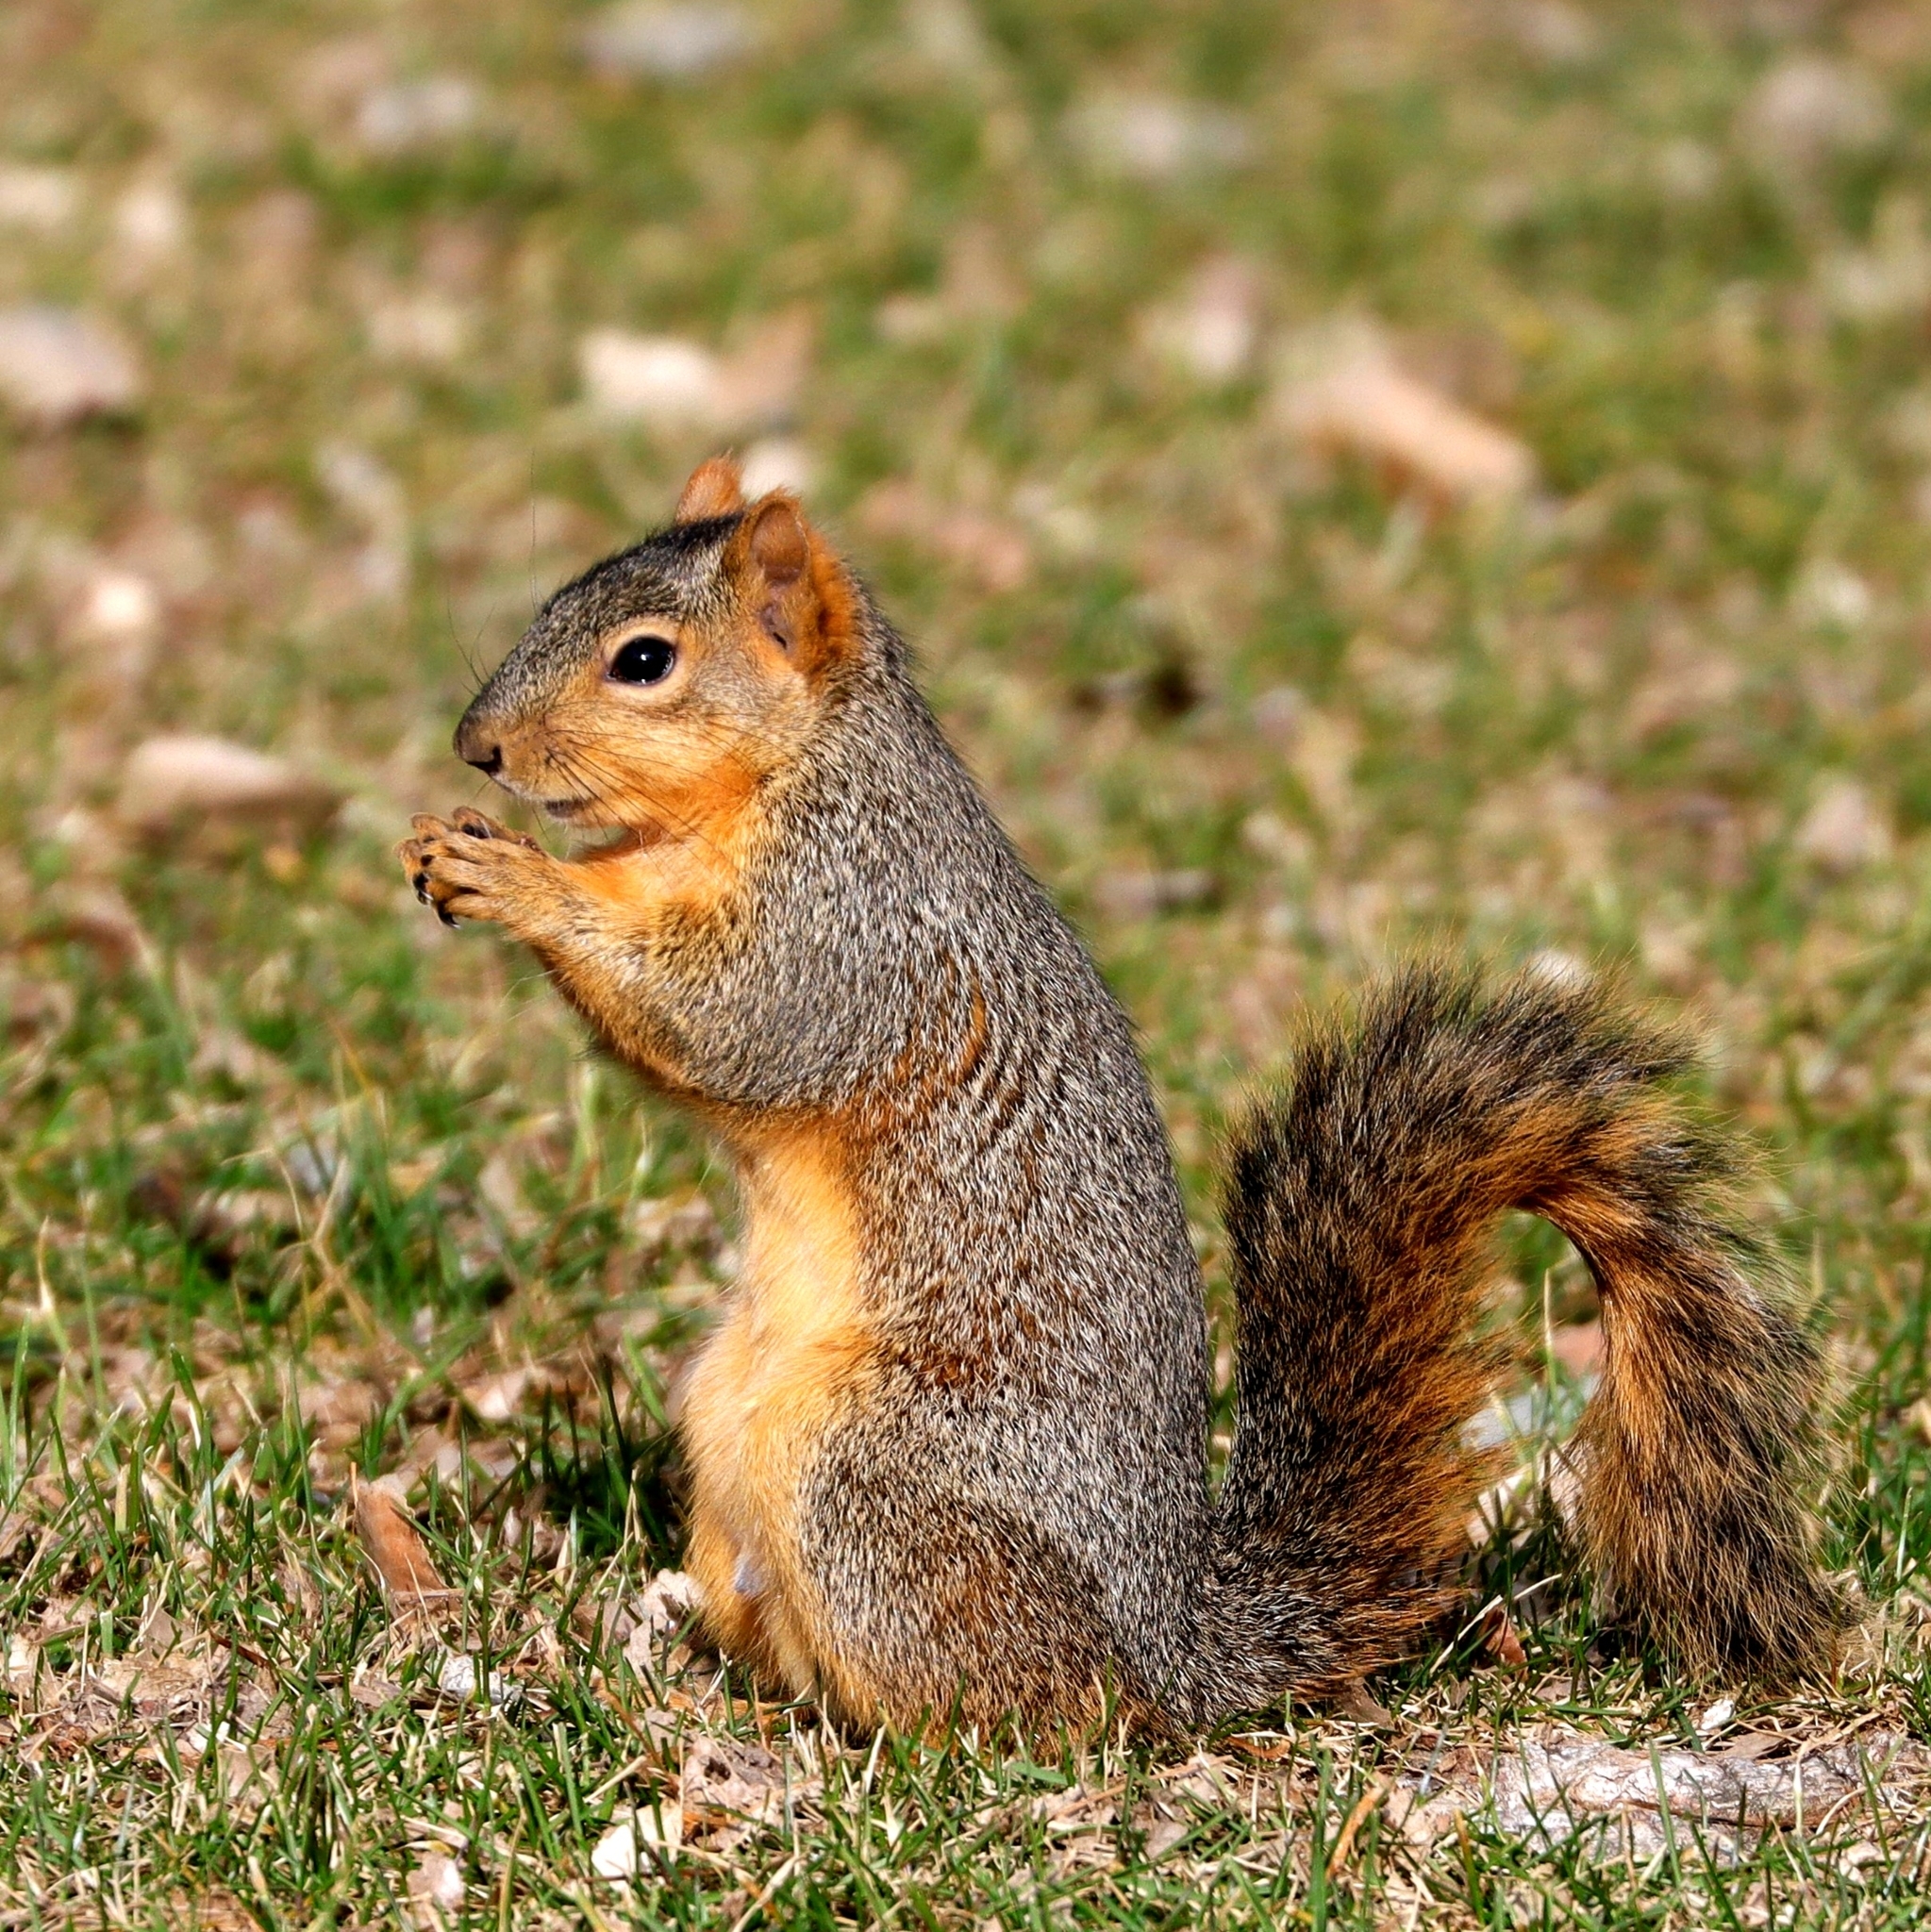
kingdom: Animalia
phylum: Chordata
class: Mammalia
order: Rodentia
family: Sciuridae
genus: Sciurus
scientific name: Sciurus niger
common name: Fox squirrel
